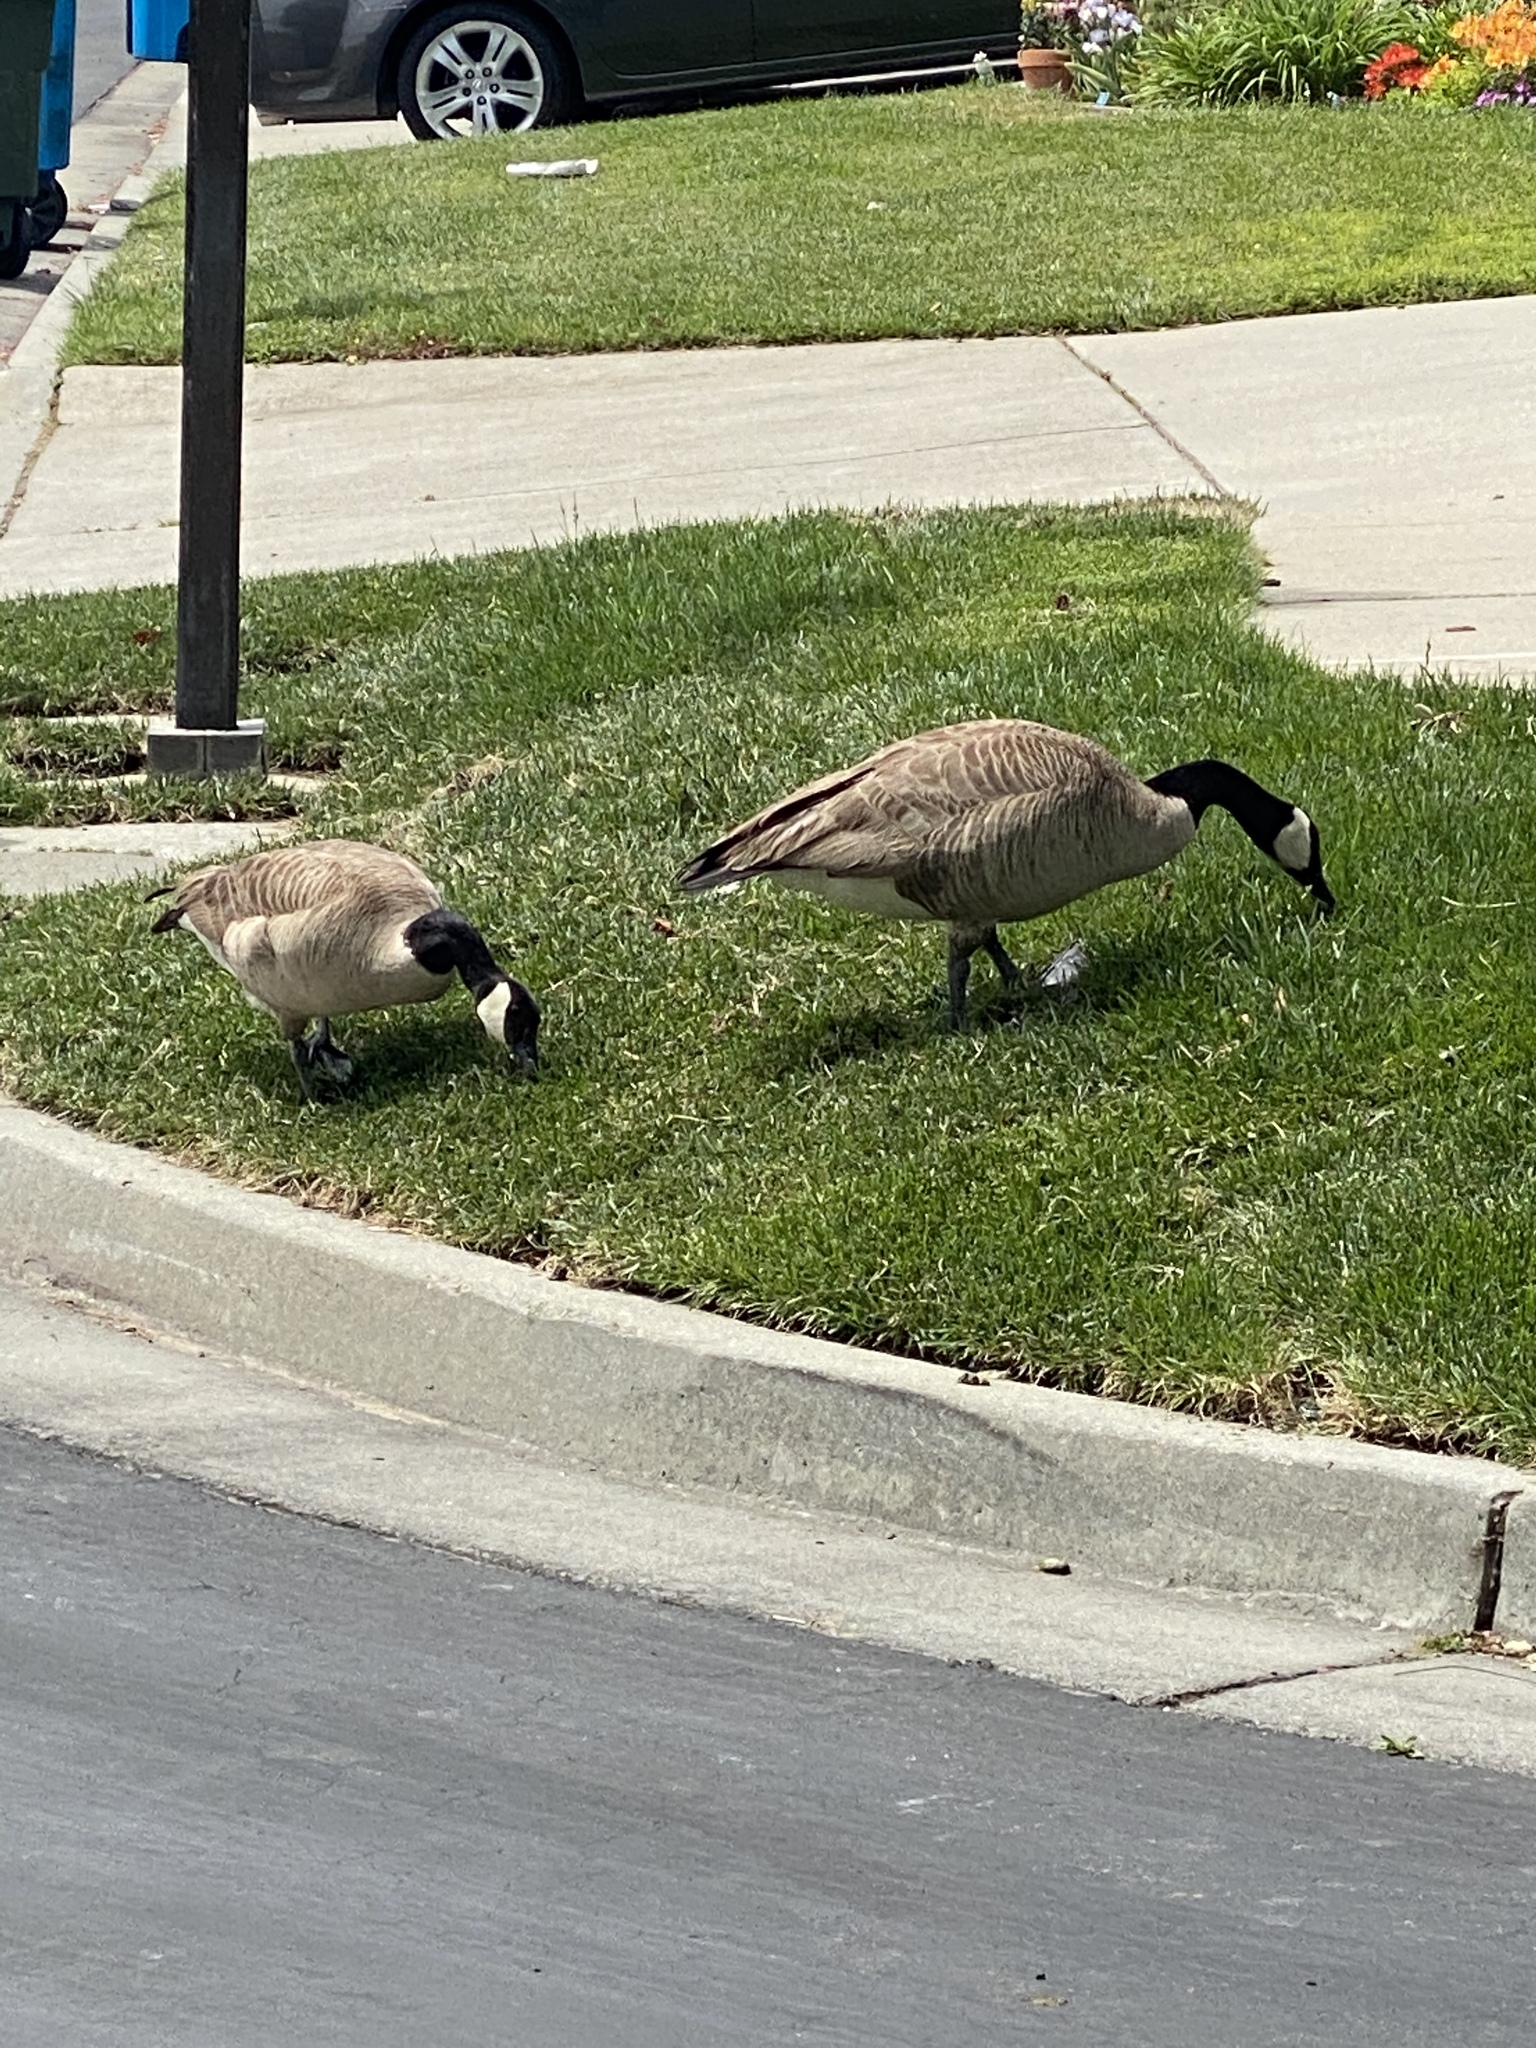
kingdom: Animalia
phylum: Chordata
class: Aves
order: Anseriformes
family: Anatidae
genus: Branta
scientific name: Branta canadensis
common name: Canada goose
